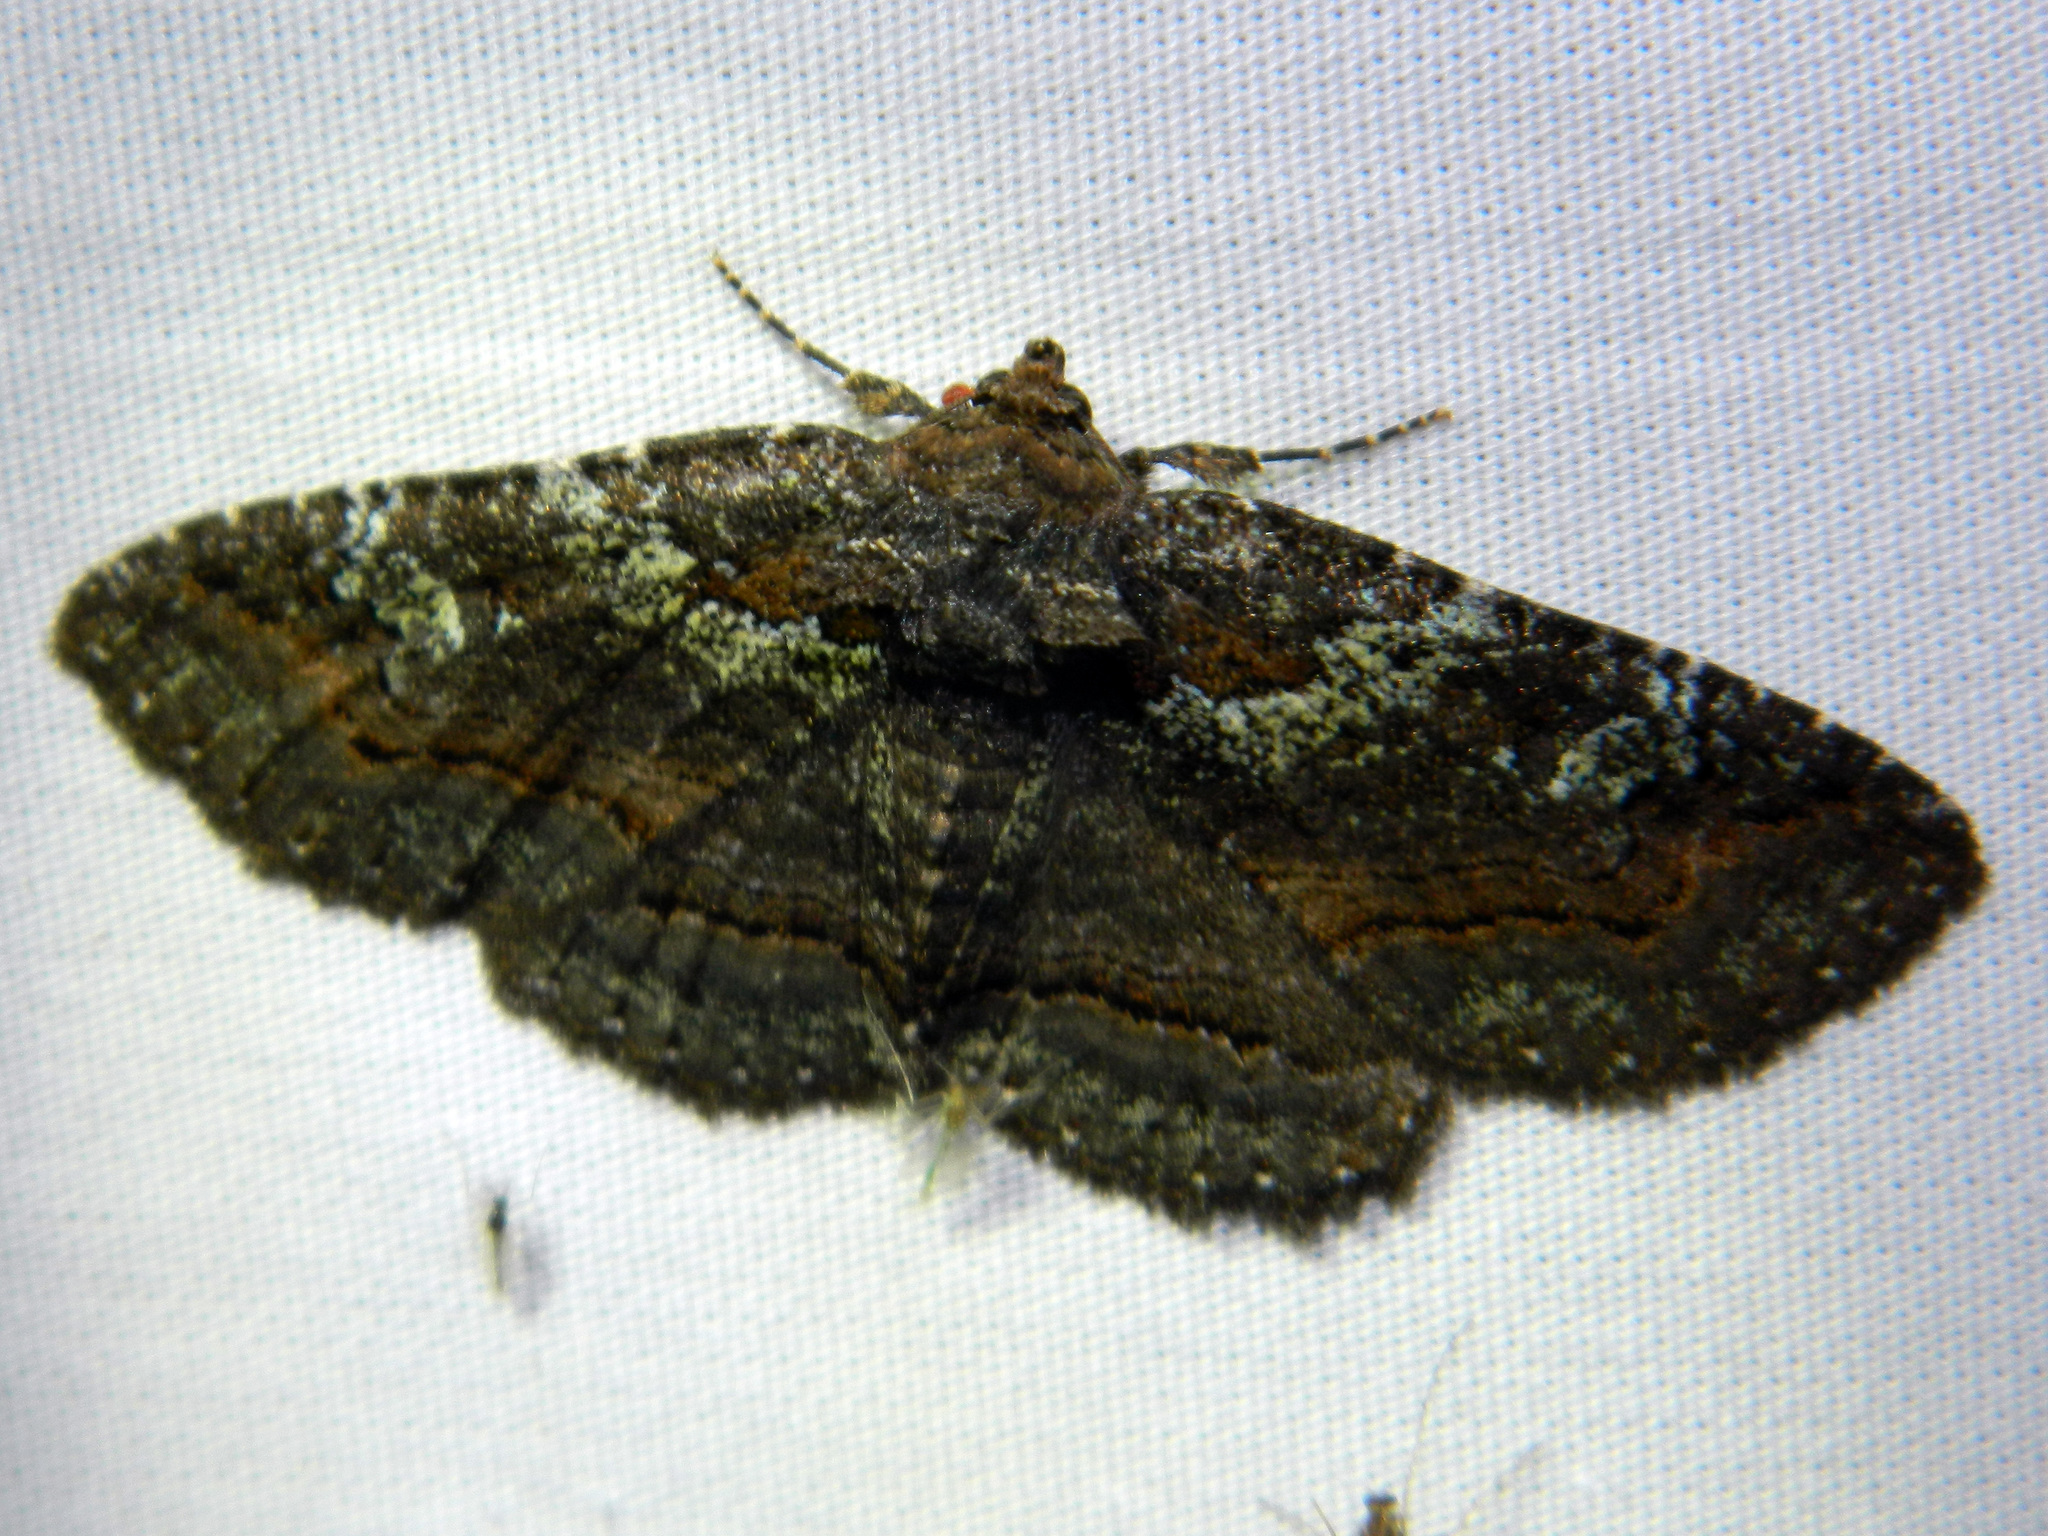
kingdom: Animalia
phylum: Arthropoda
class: Insecta
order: Lepidoptera
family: Erebidae
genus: Zale
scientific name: Zale aeruginosa
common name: Green-dusted zale moth
